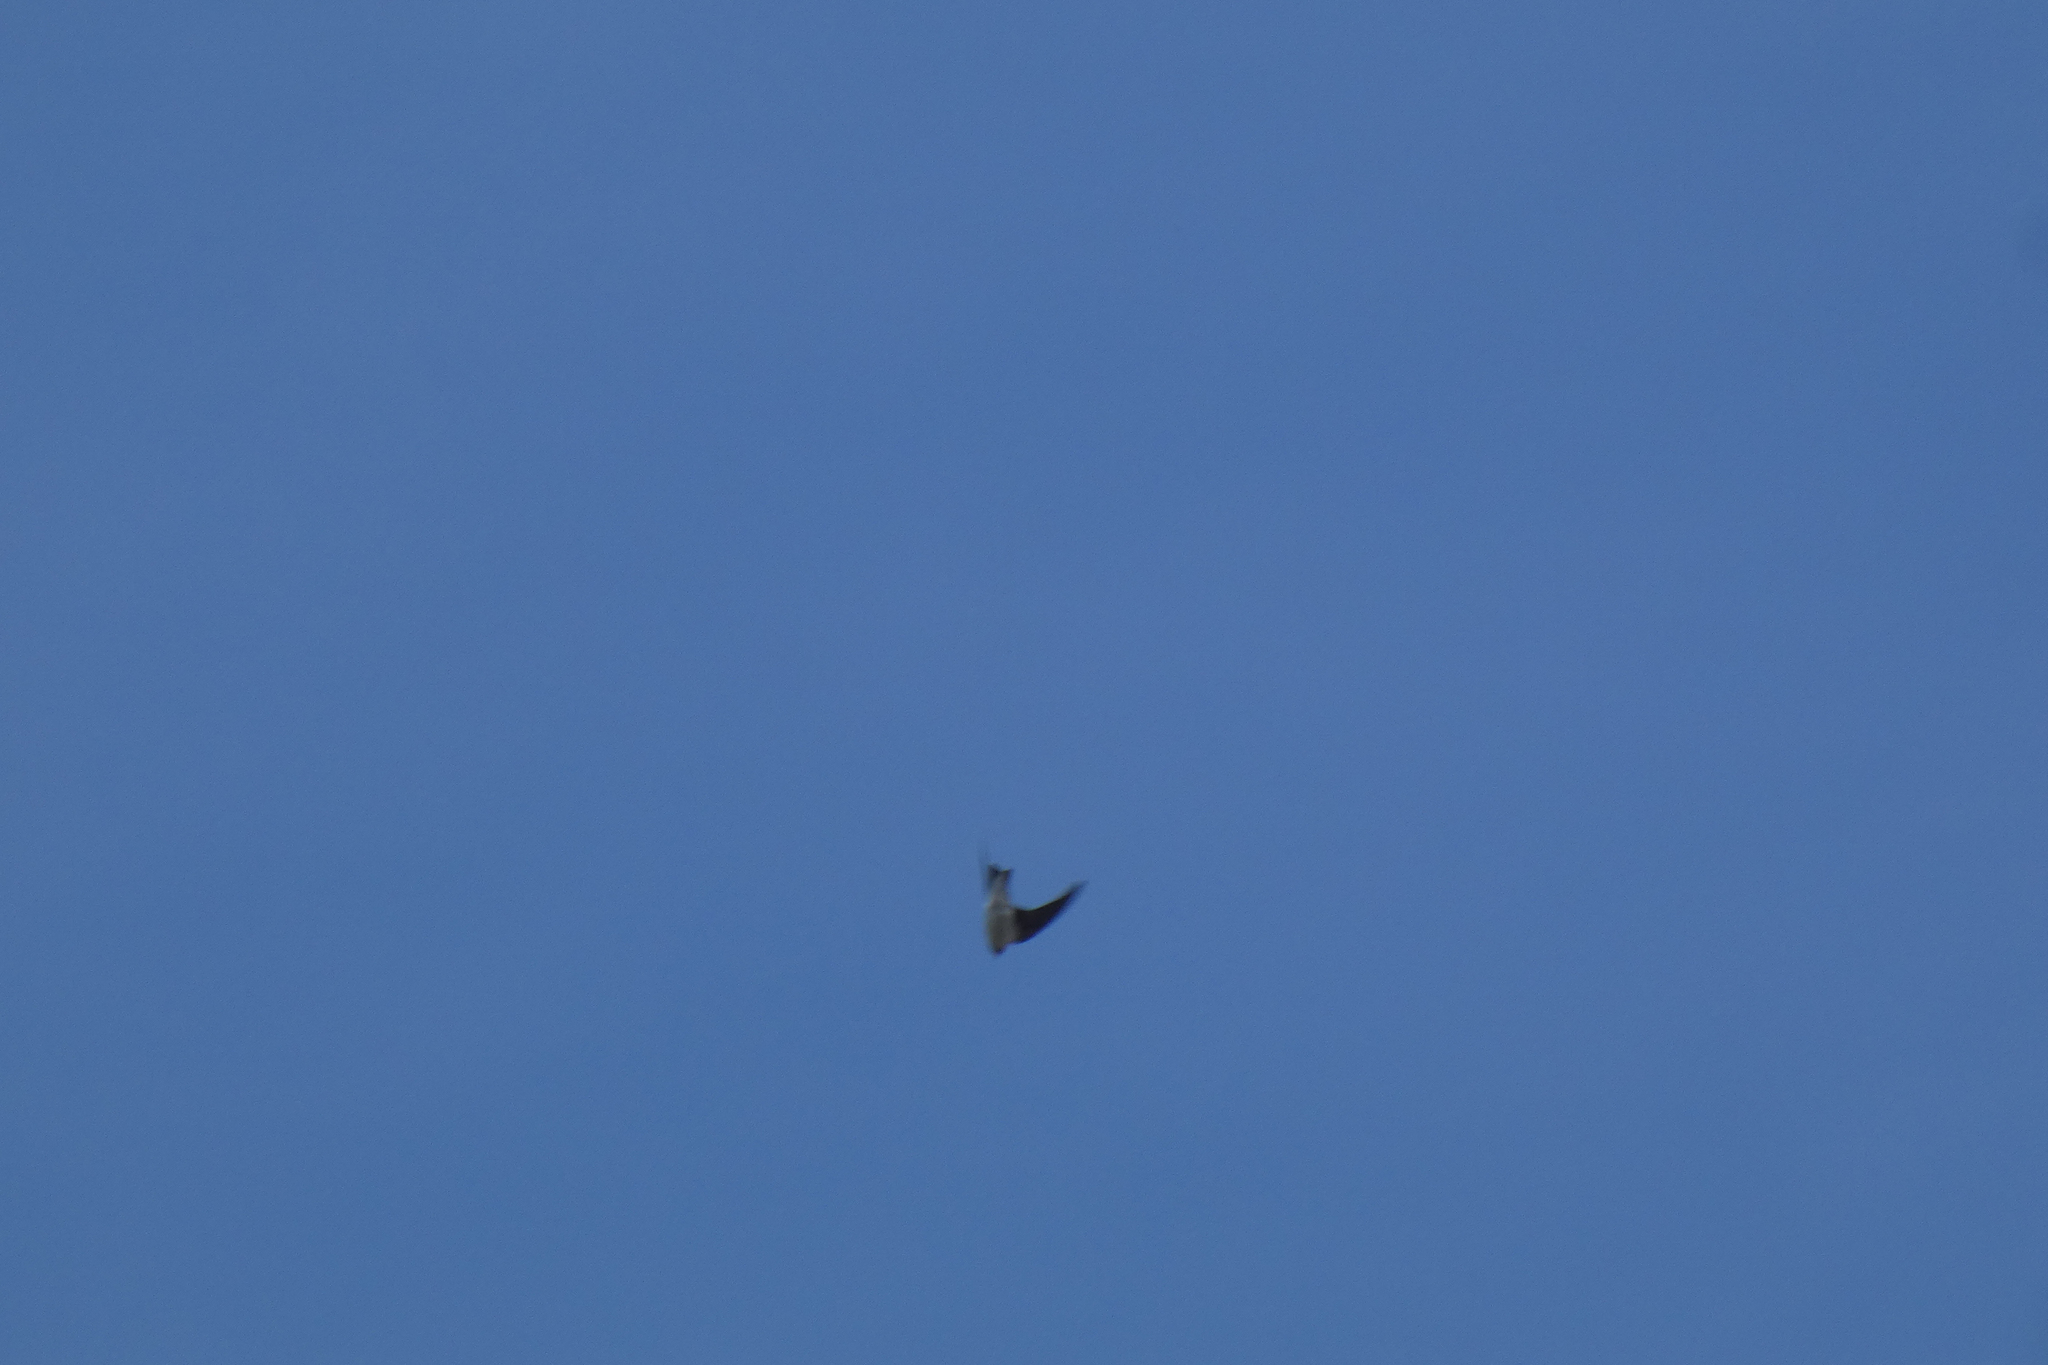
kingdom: Animalia
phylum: Chordata
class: Aves
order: Passeriformes
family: Hirundinidae
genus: Tachycineta
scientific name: Tachycineta thalassina
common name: Violet-green swallow
